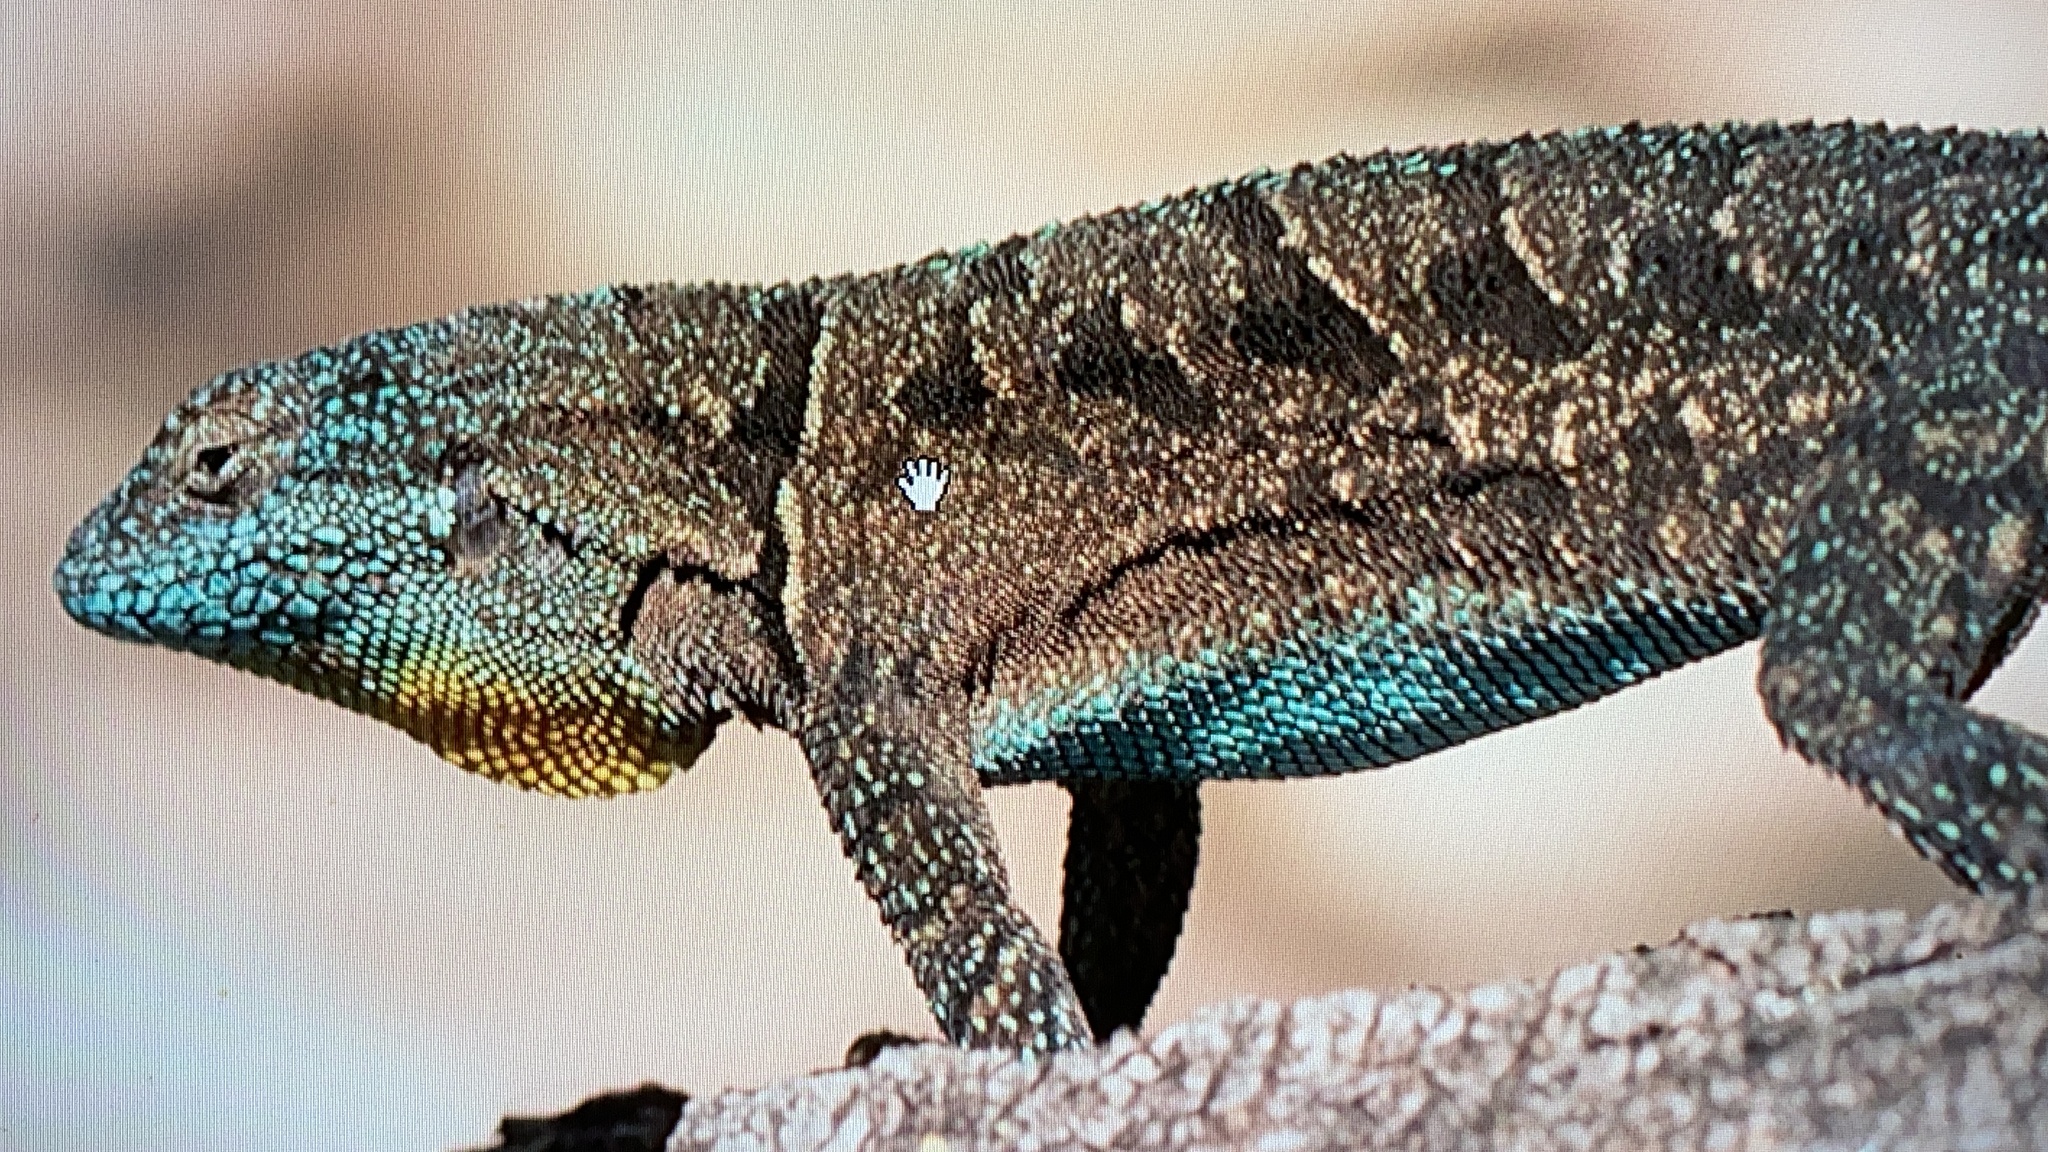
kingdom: Animalia
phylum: Chordata
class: Squamata
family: Phrynosomatidae
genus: Urosaurus
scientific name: Urosaurus ornatus
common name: Ornate tree lizard
